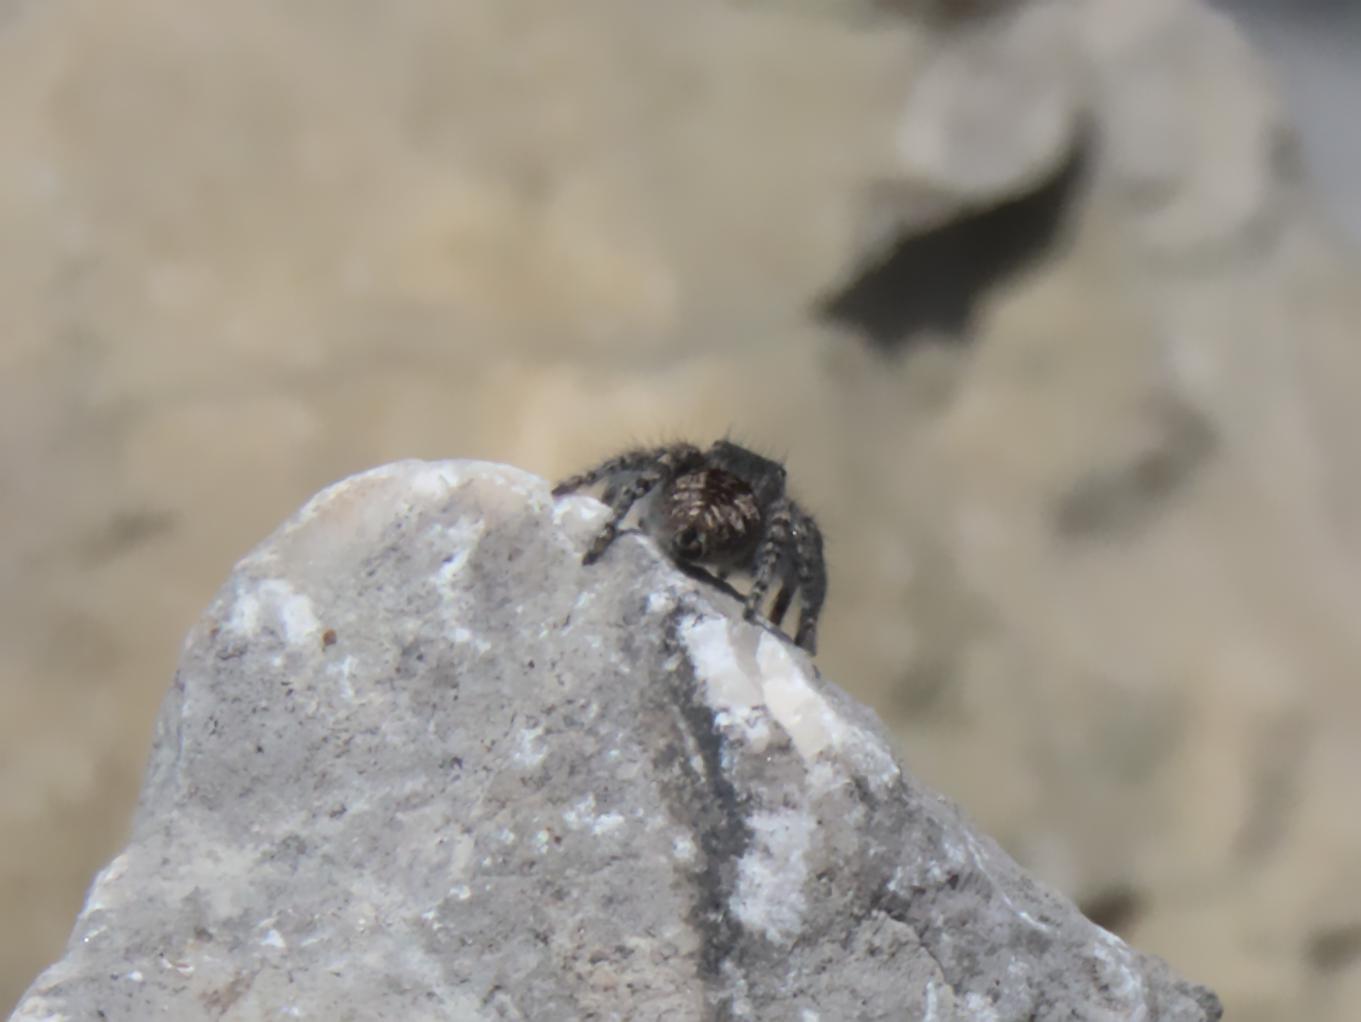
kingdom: Animalia
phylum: Arthropoda
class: Arachnida
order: Araneae
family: Salticidae
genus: Philaeus
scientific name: Philaeus chrysops
